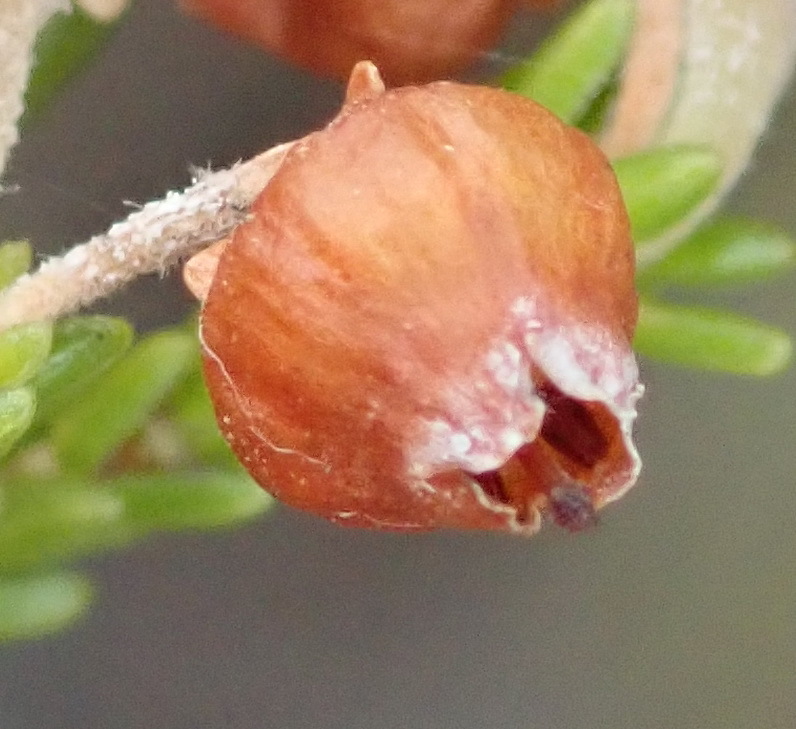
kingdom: Plantae
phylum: Tracheophyta
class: Magnoliopsida
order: Ericales
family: Ericaceae
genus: Erica
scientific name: Erica glomiflora
